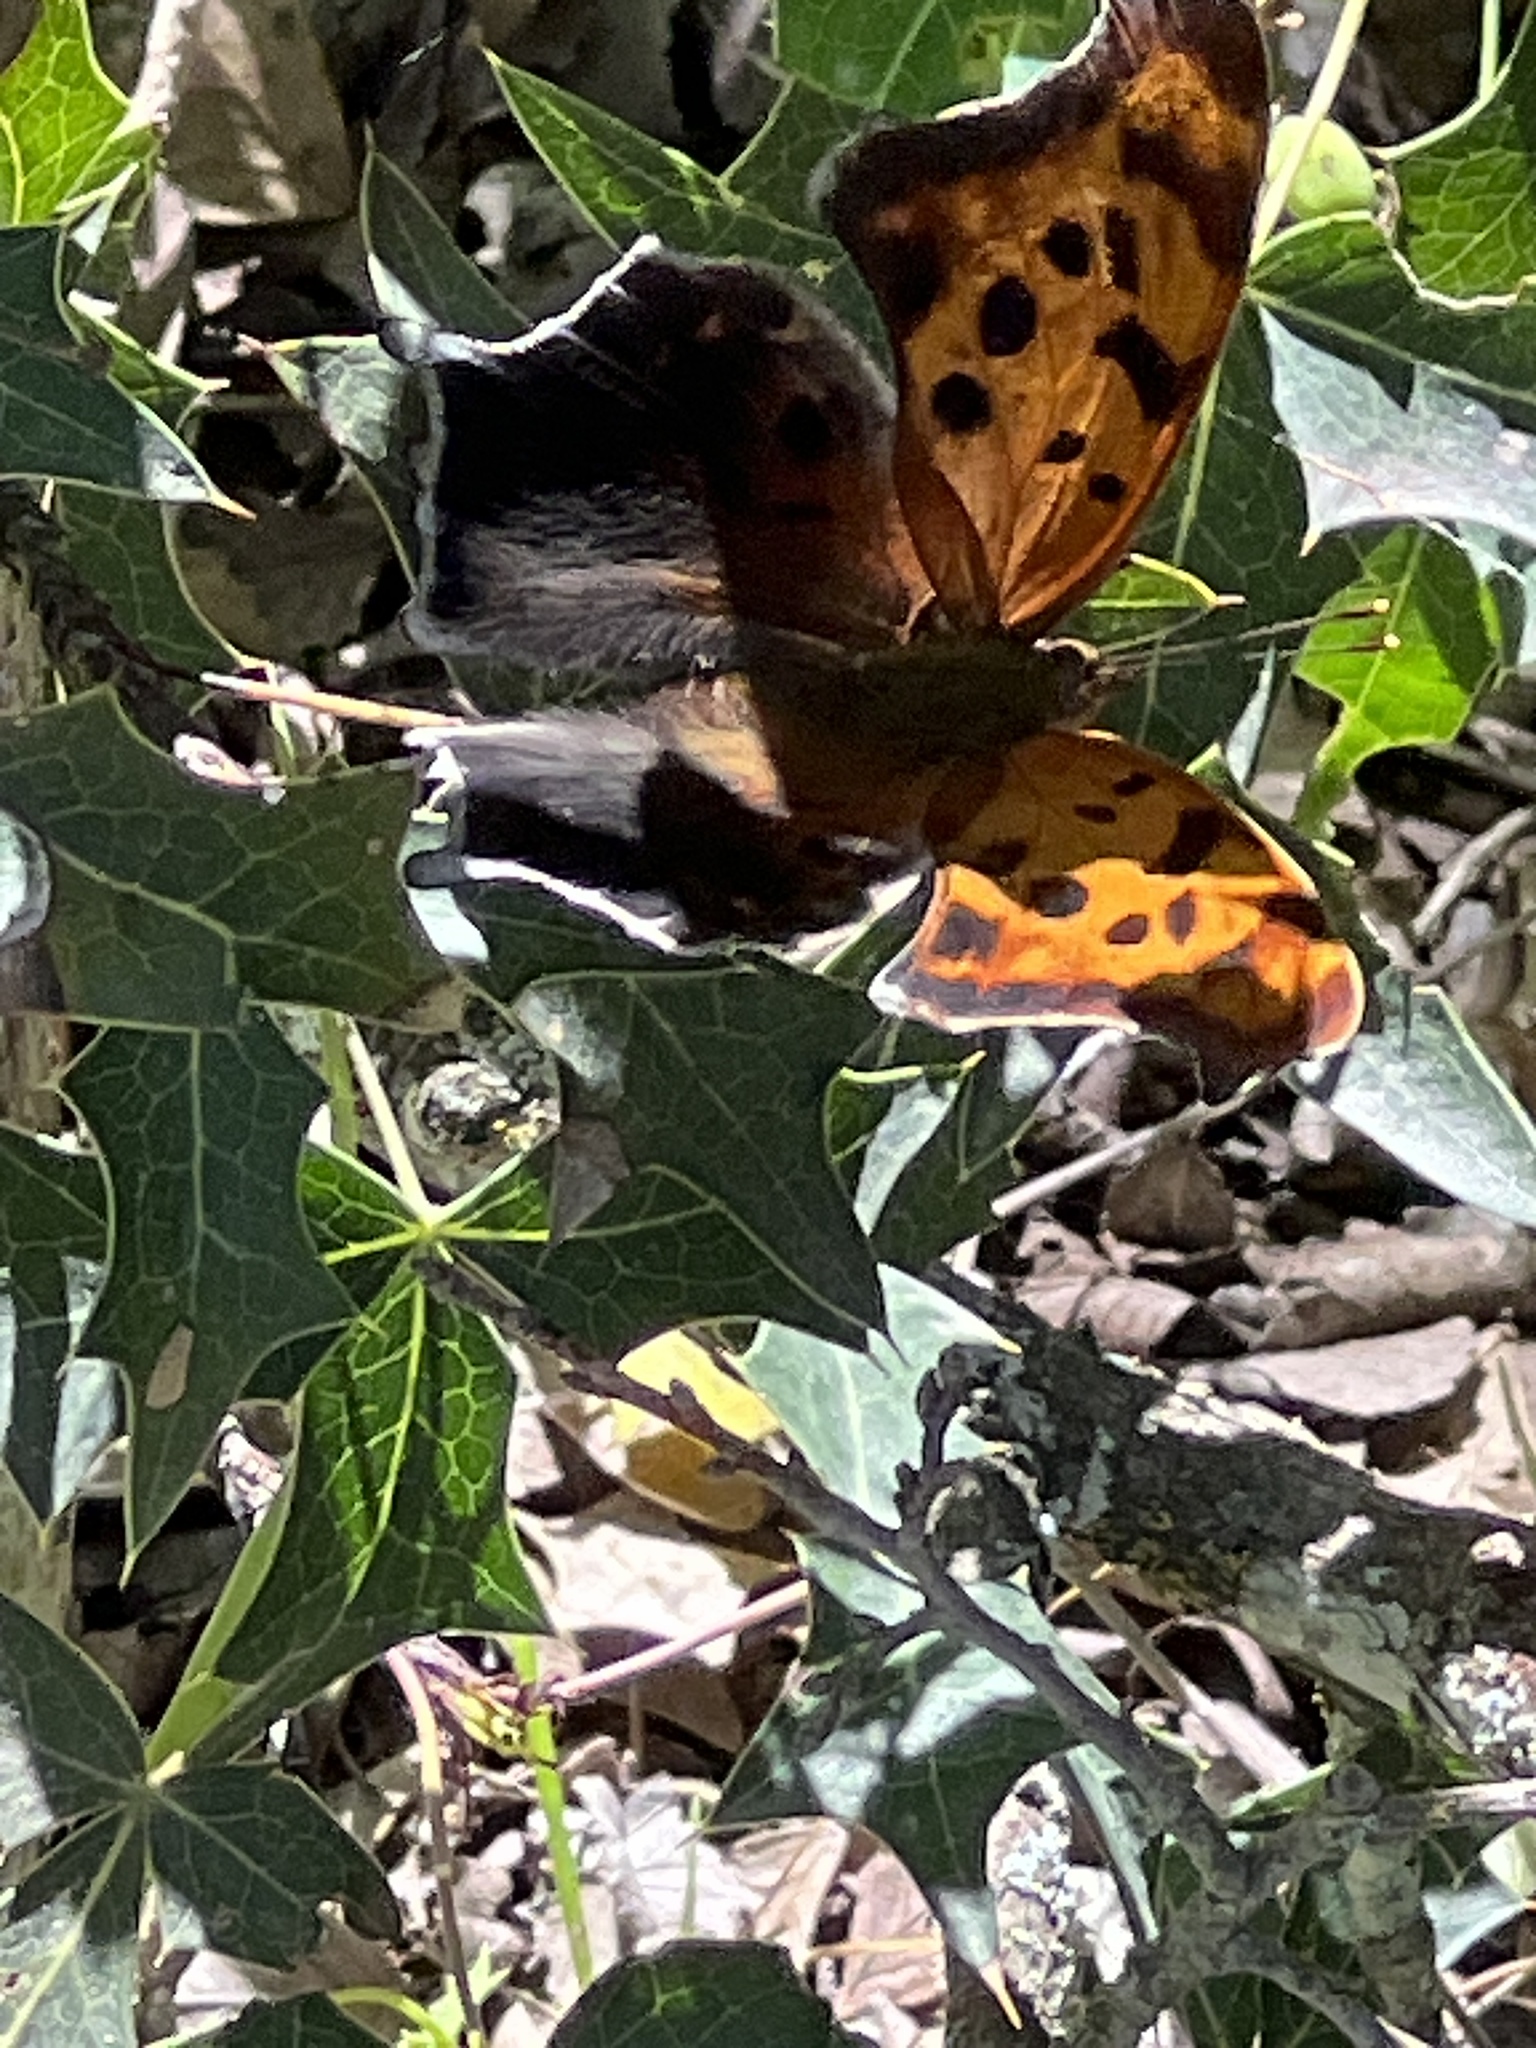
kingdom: Animalia
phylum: Arthropoda
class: Insecta
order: Lepidoptera
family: Nymphalidae
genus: Polygonia
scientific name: Polygonia interrogationis
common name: Question mark
